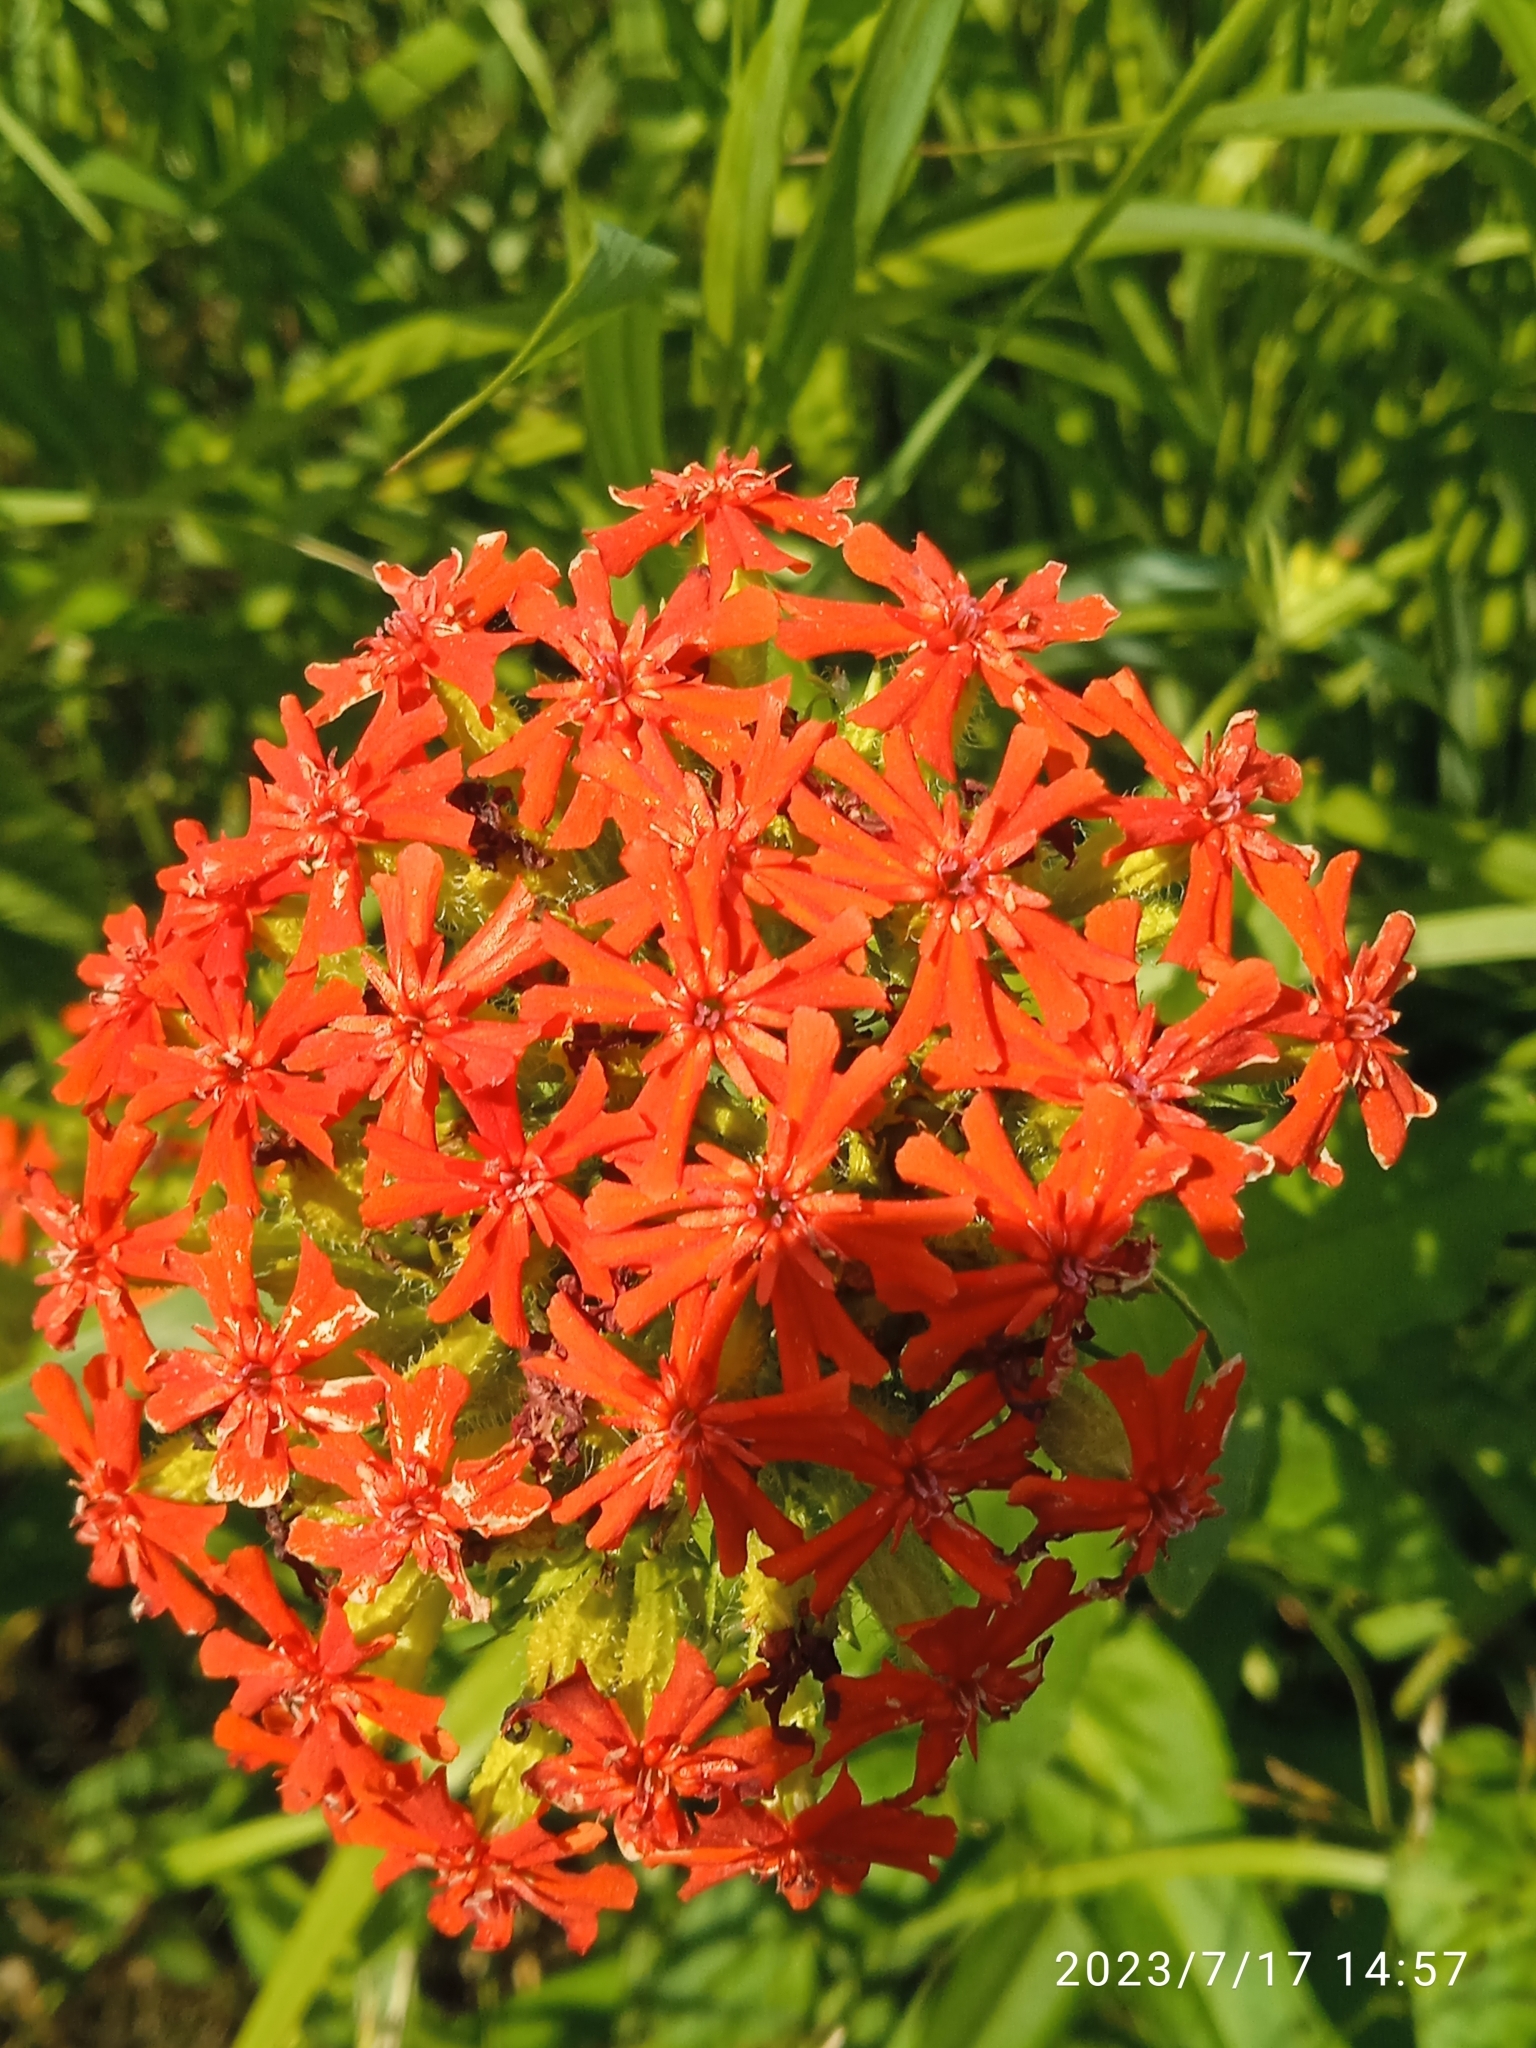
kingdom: Plantae
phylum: Tracheophyta
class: Magnoliopsida
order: Caryophyllales
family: Caryophyllaceae
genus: Silene
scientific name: Silene chalcedonica
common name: Maltese-cross
